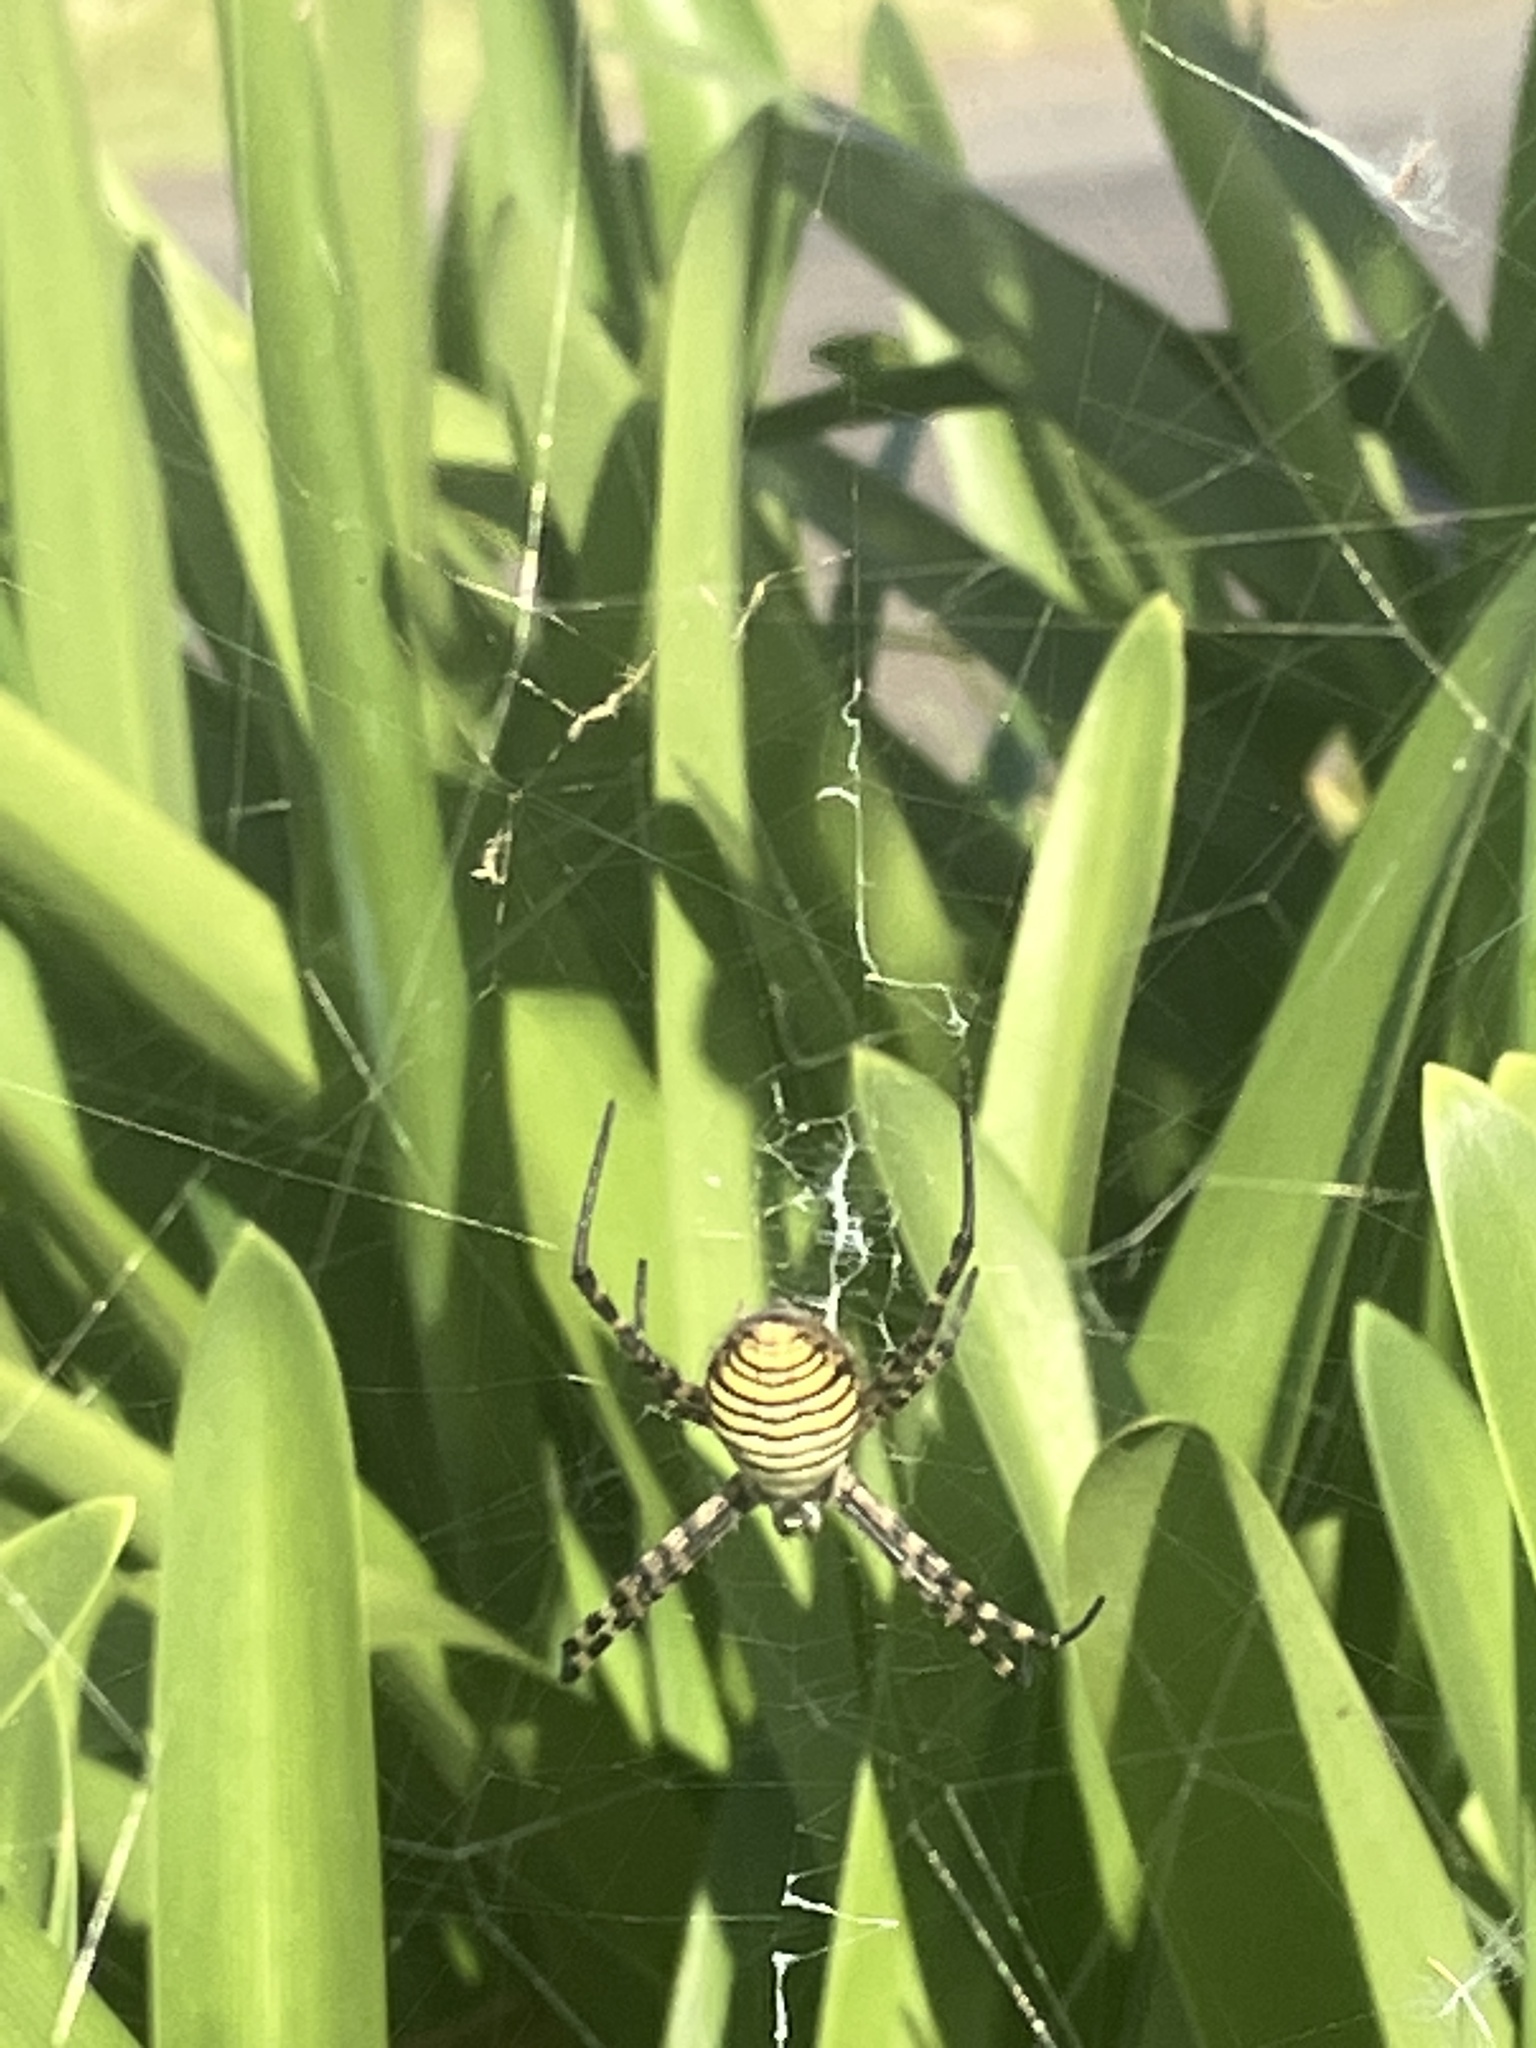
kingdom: Animalia
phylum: Arthropoda
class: Arachnida
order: Araneae
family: Araneidae
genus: Argiope
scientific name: Argiope trifasciata
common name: Banded garden spider
